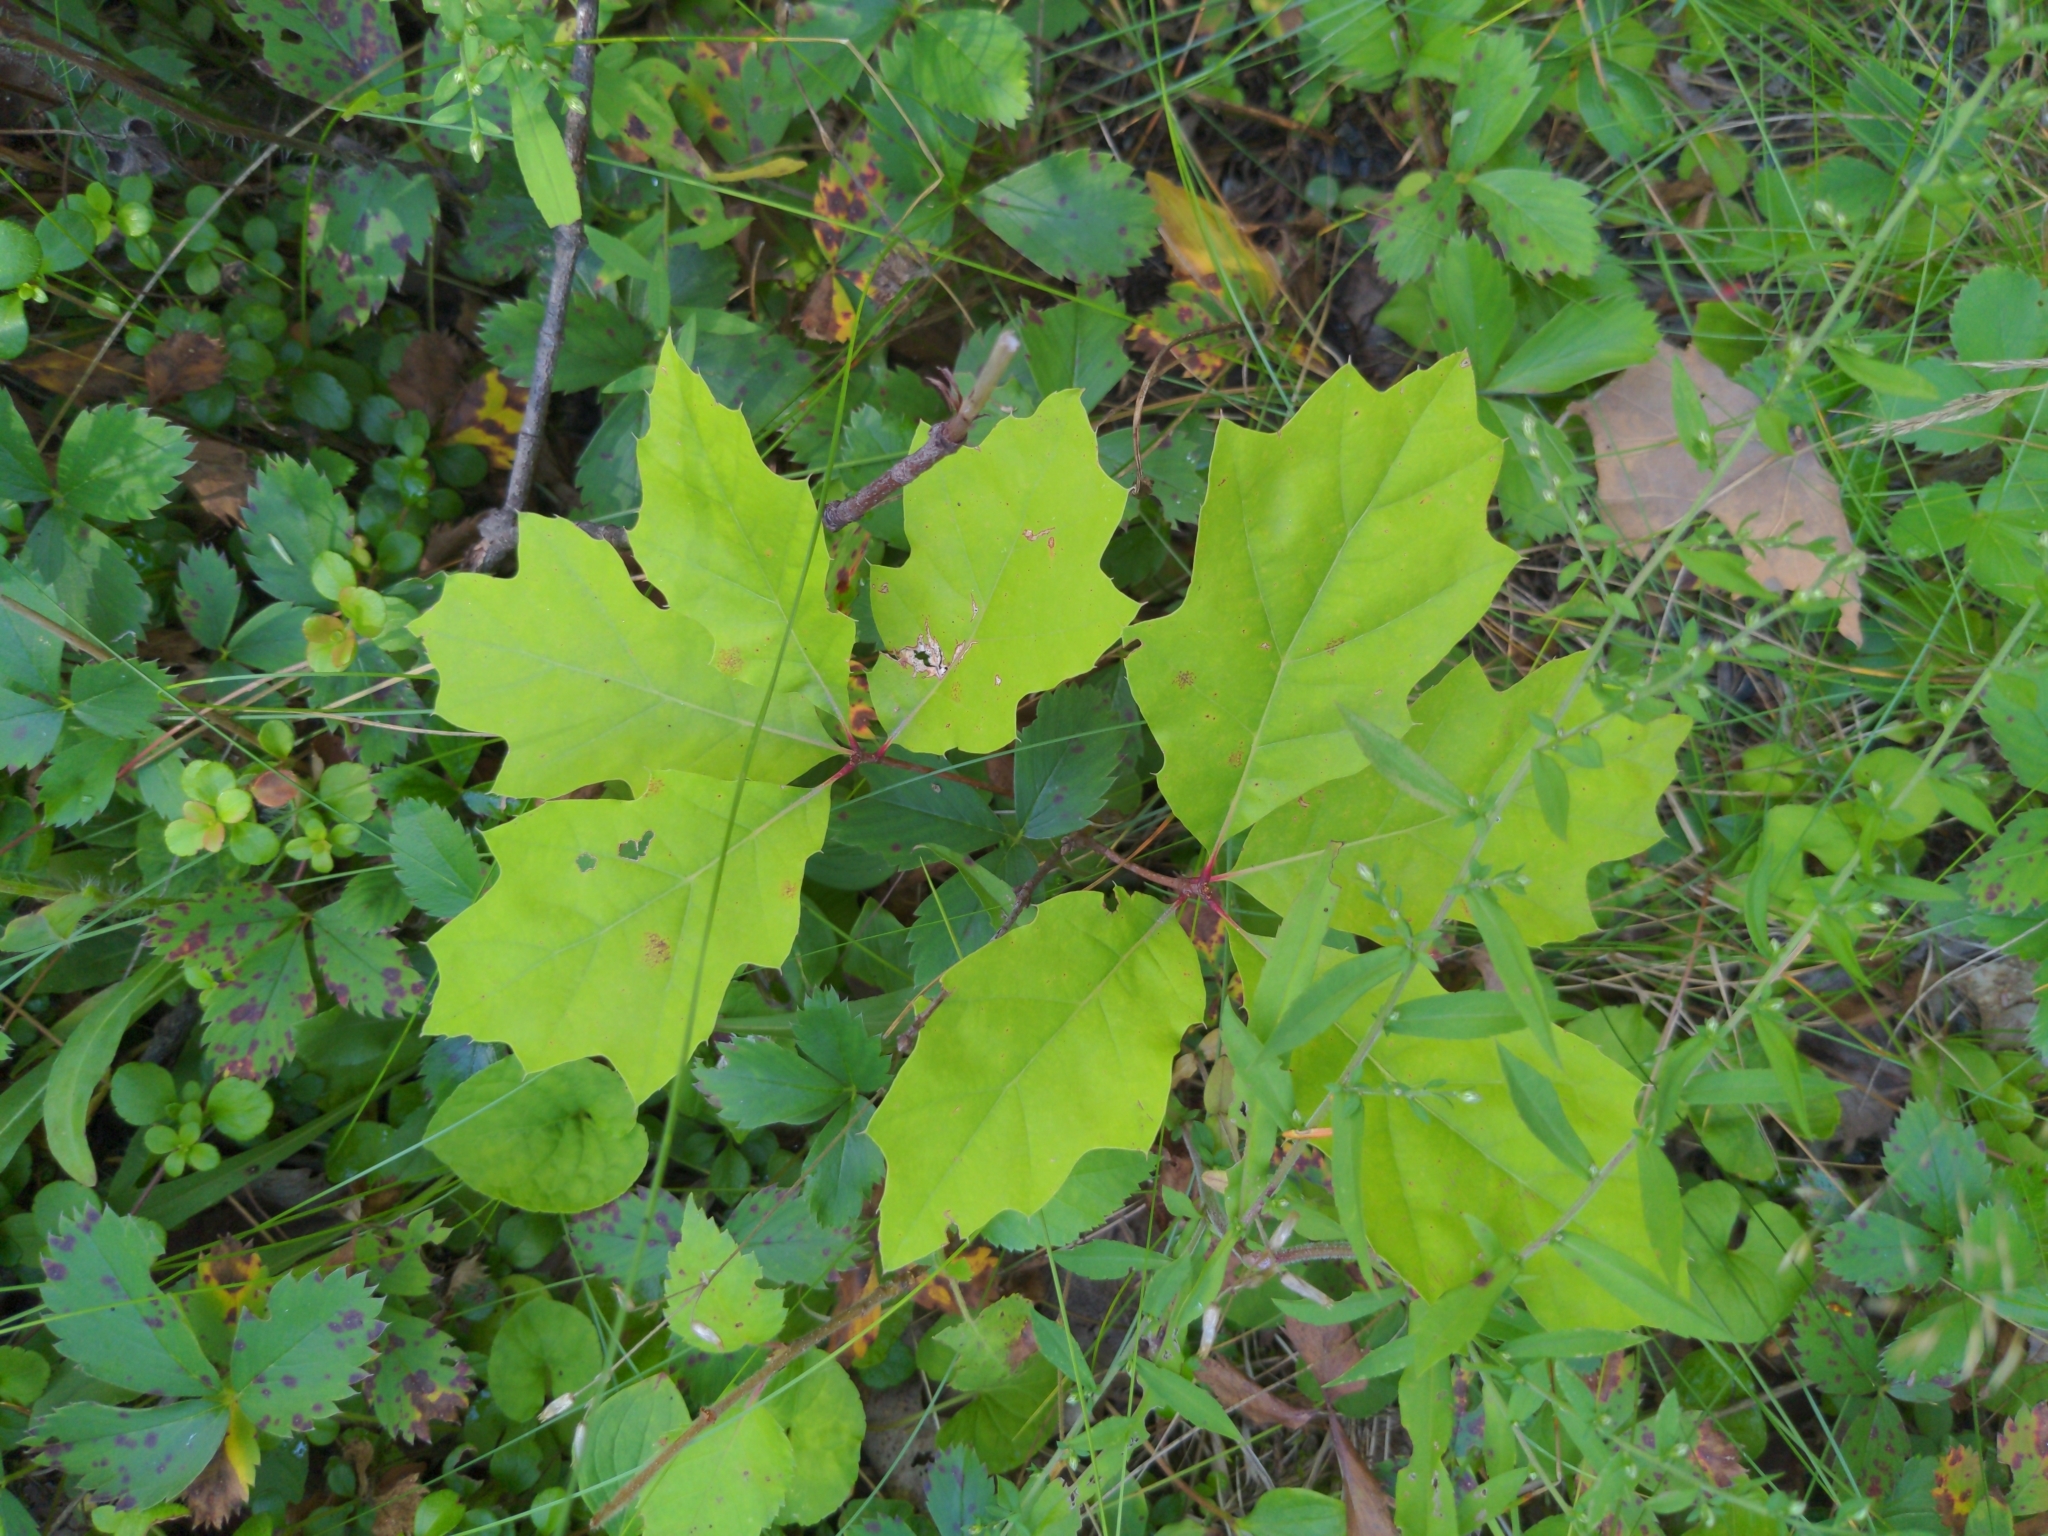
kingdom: Plantae
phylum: Tracheophyta
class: Magnoliopsida
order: Fagales
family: Fagaceae
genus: Quercus
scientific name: Quercus rubra
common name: Red oak
